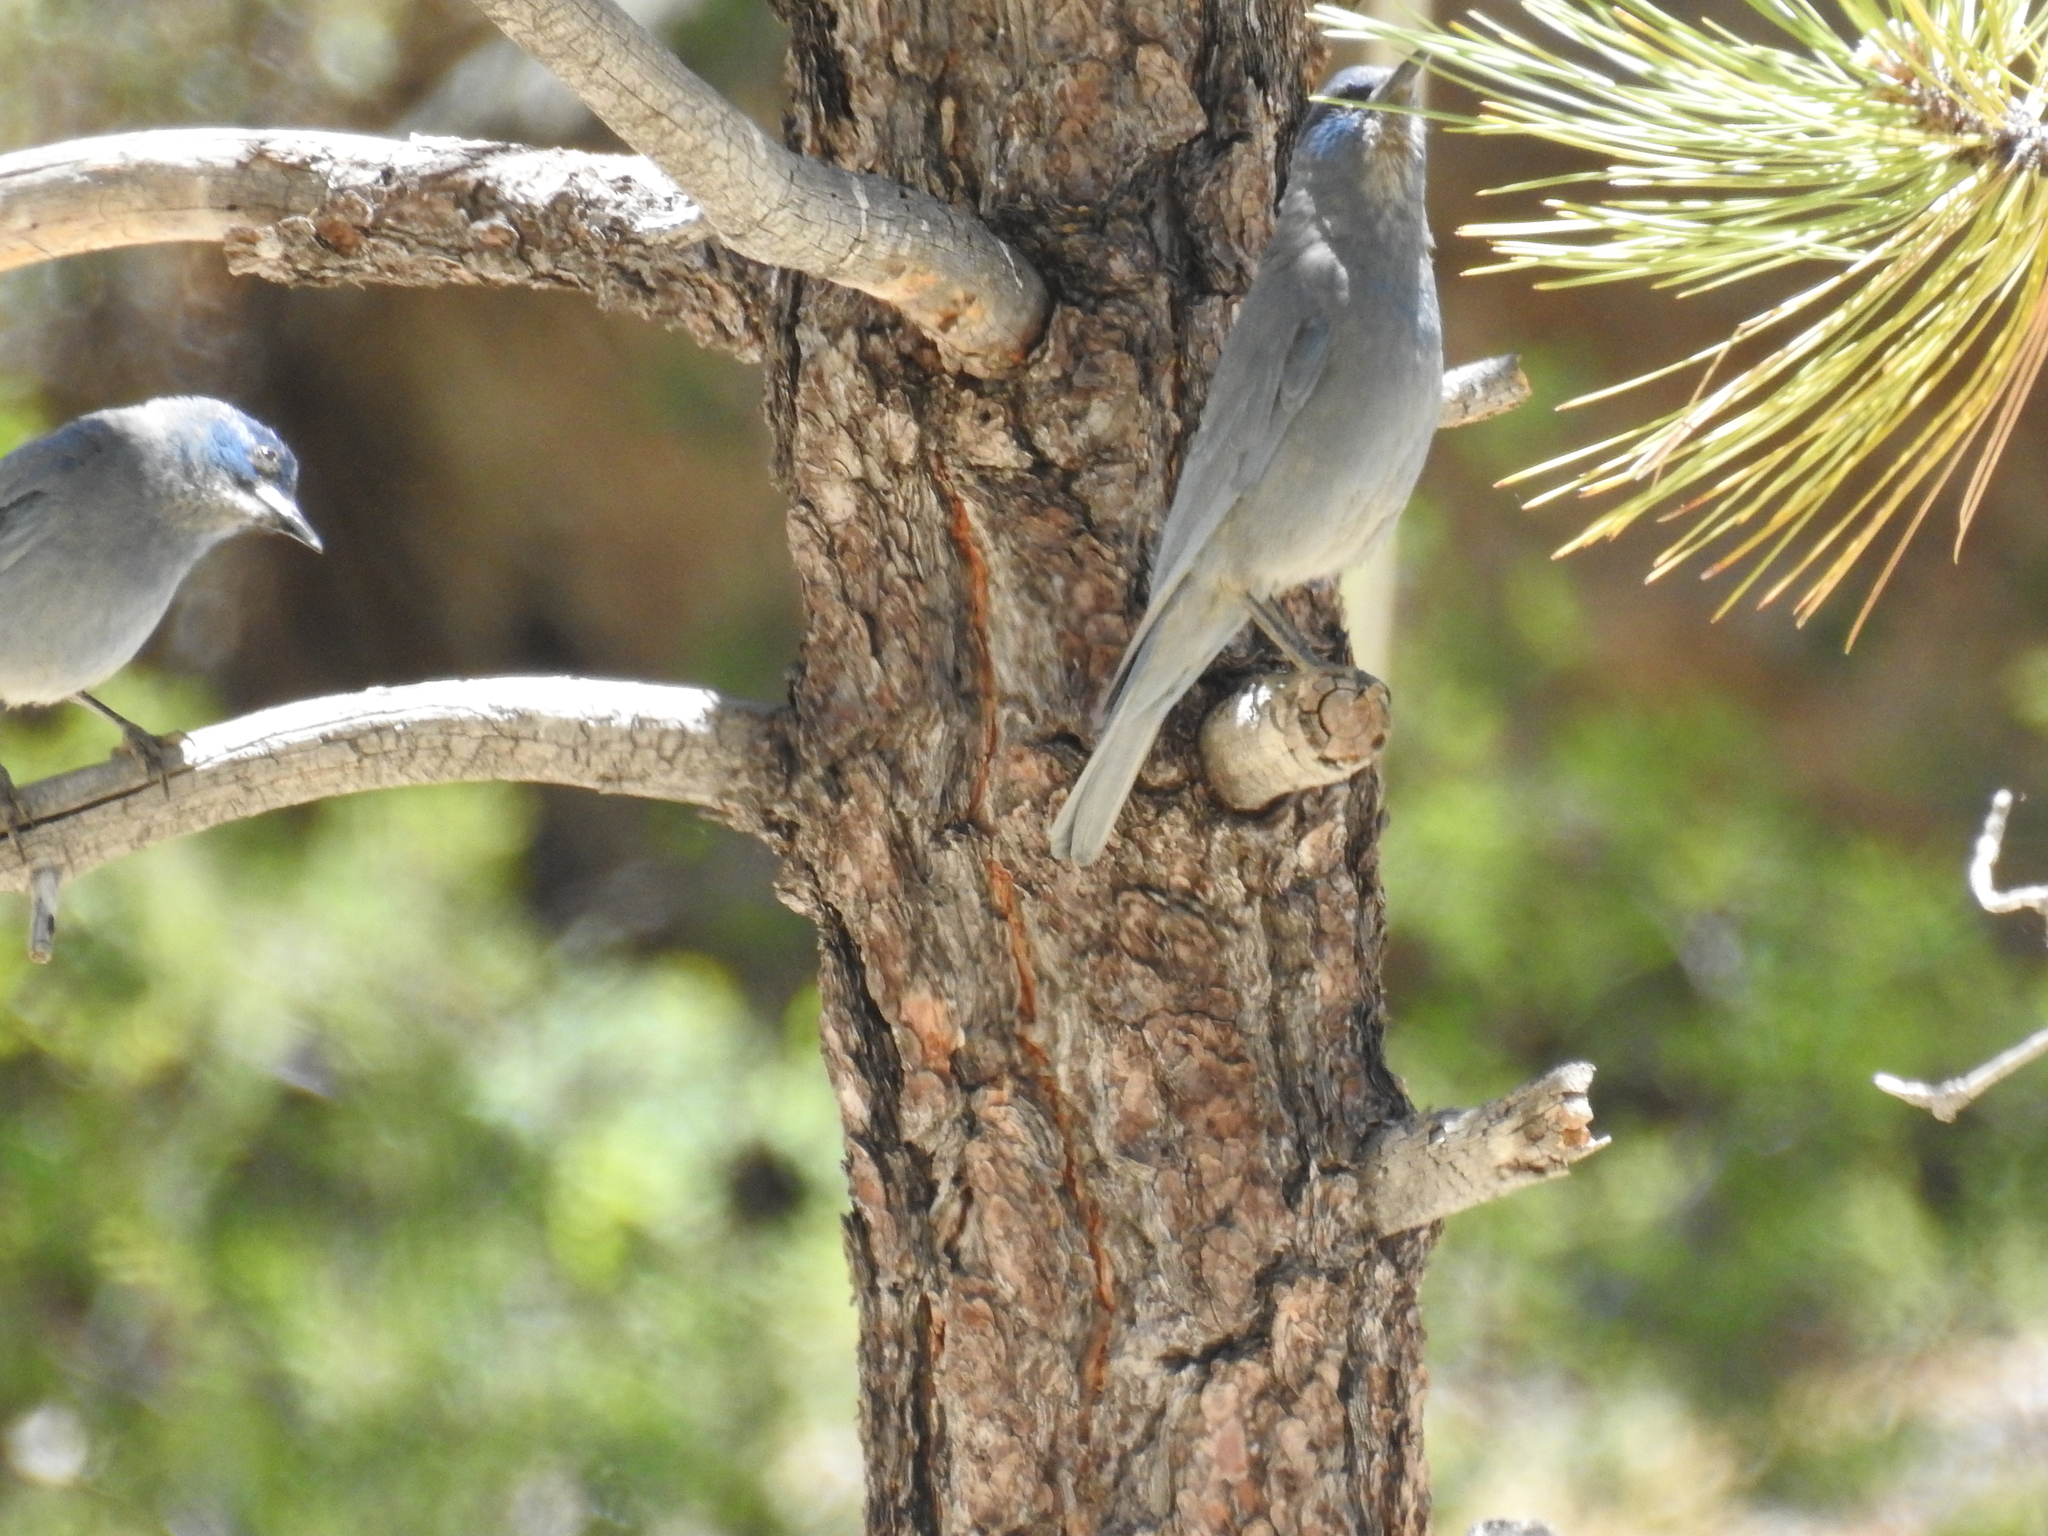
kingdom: Animalia
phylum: Chordata
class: Aves
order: Passeriformes
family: Corvidae
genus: Gymnorhinus
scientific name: Gymnorhinus cyanocephalus
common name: Pinyon jay
